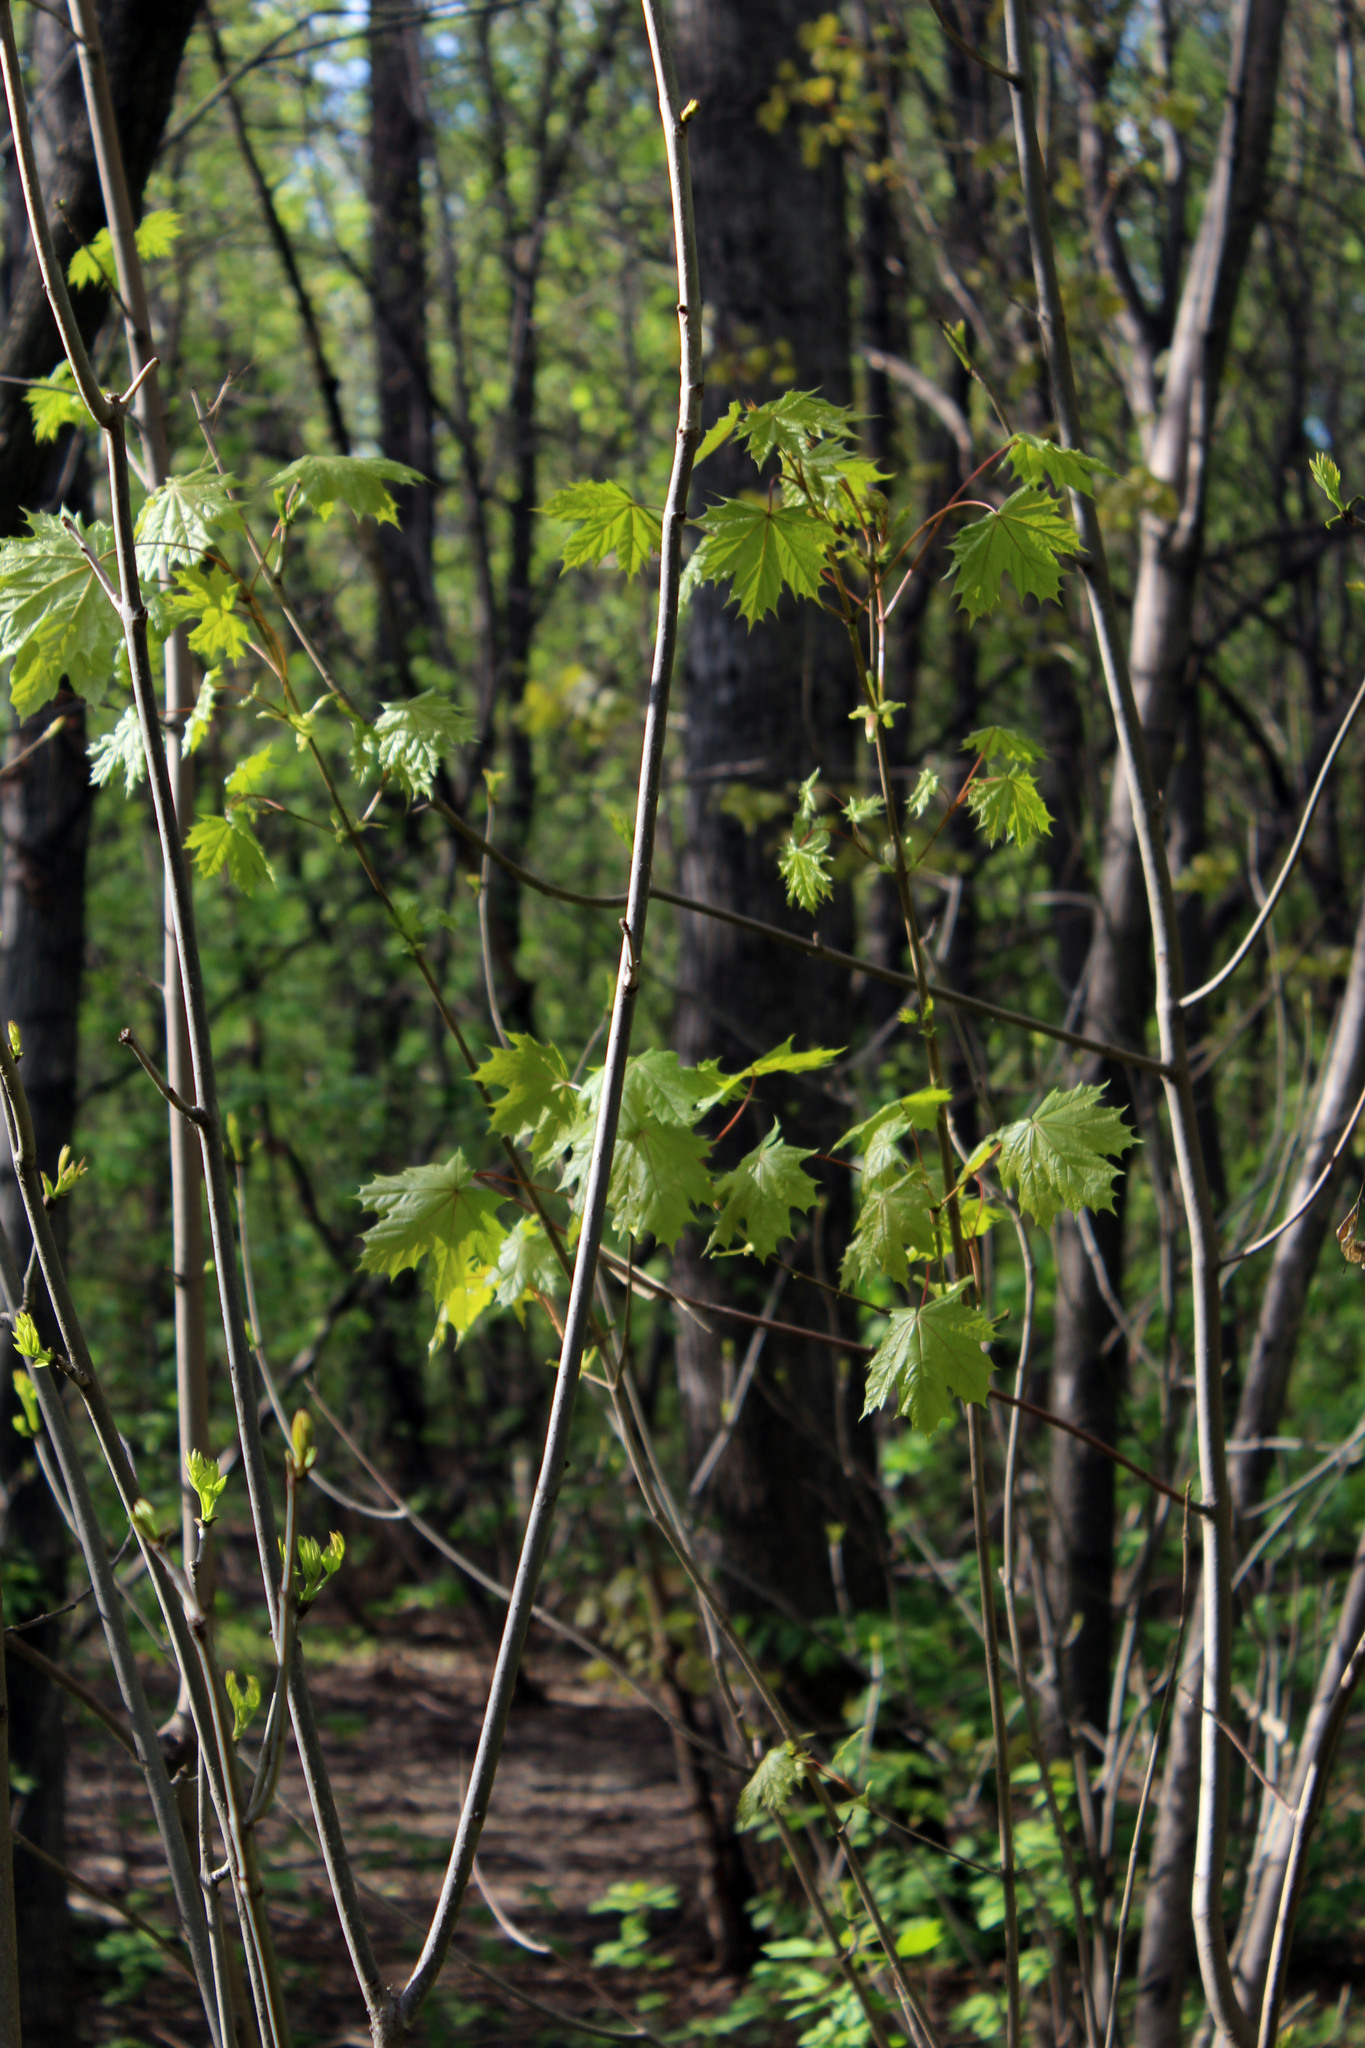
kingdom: Plantae
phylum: Tracheophyta
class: Magnoliopsida
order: Sapindales
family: Sapindaceae
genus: Acer
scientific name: Acer platanoides
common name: Norway maple
